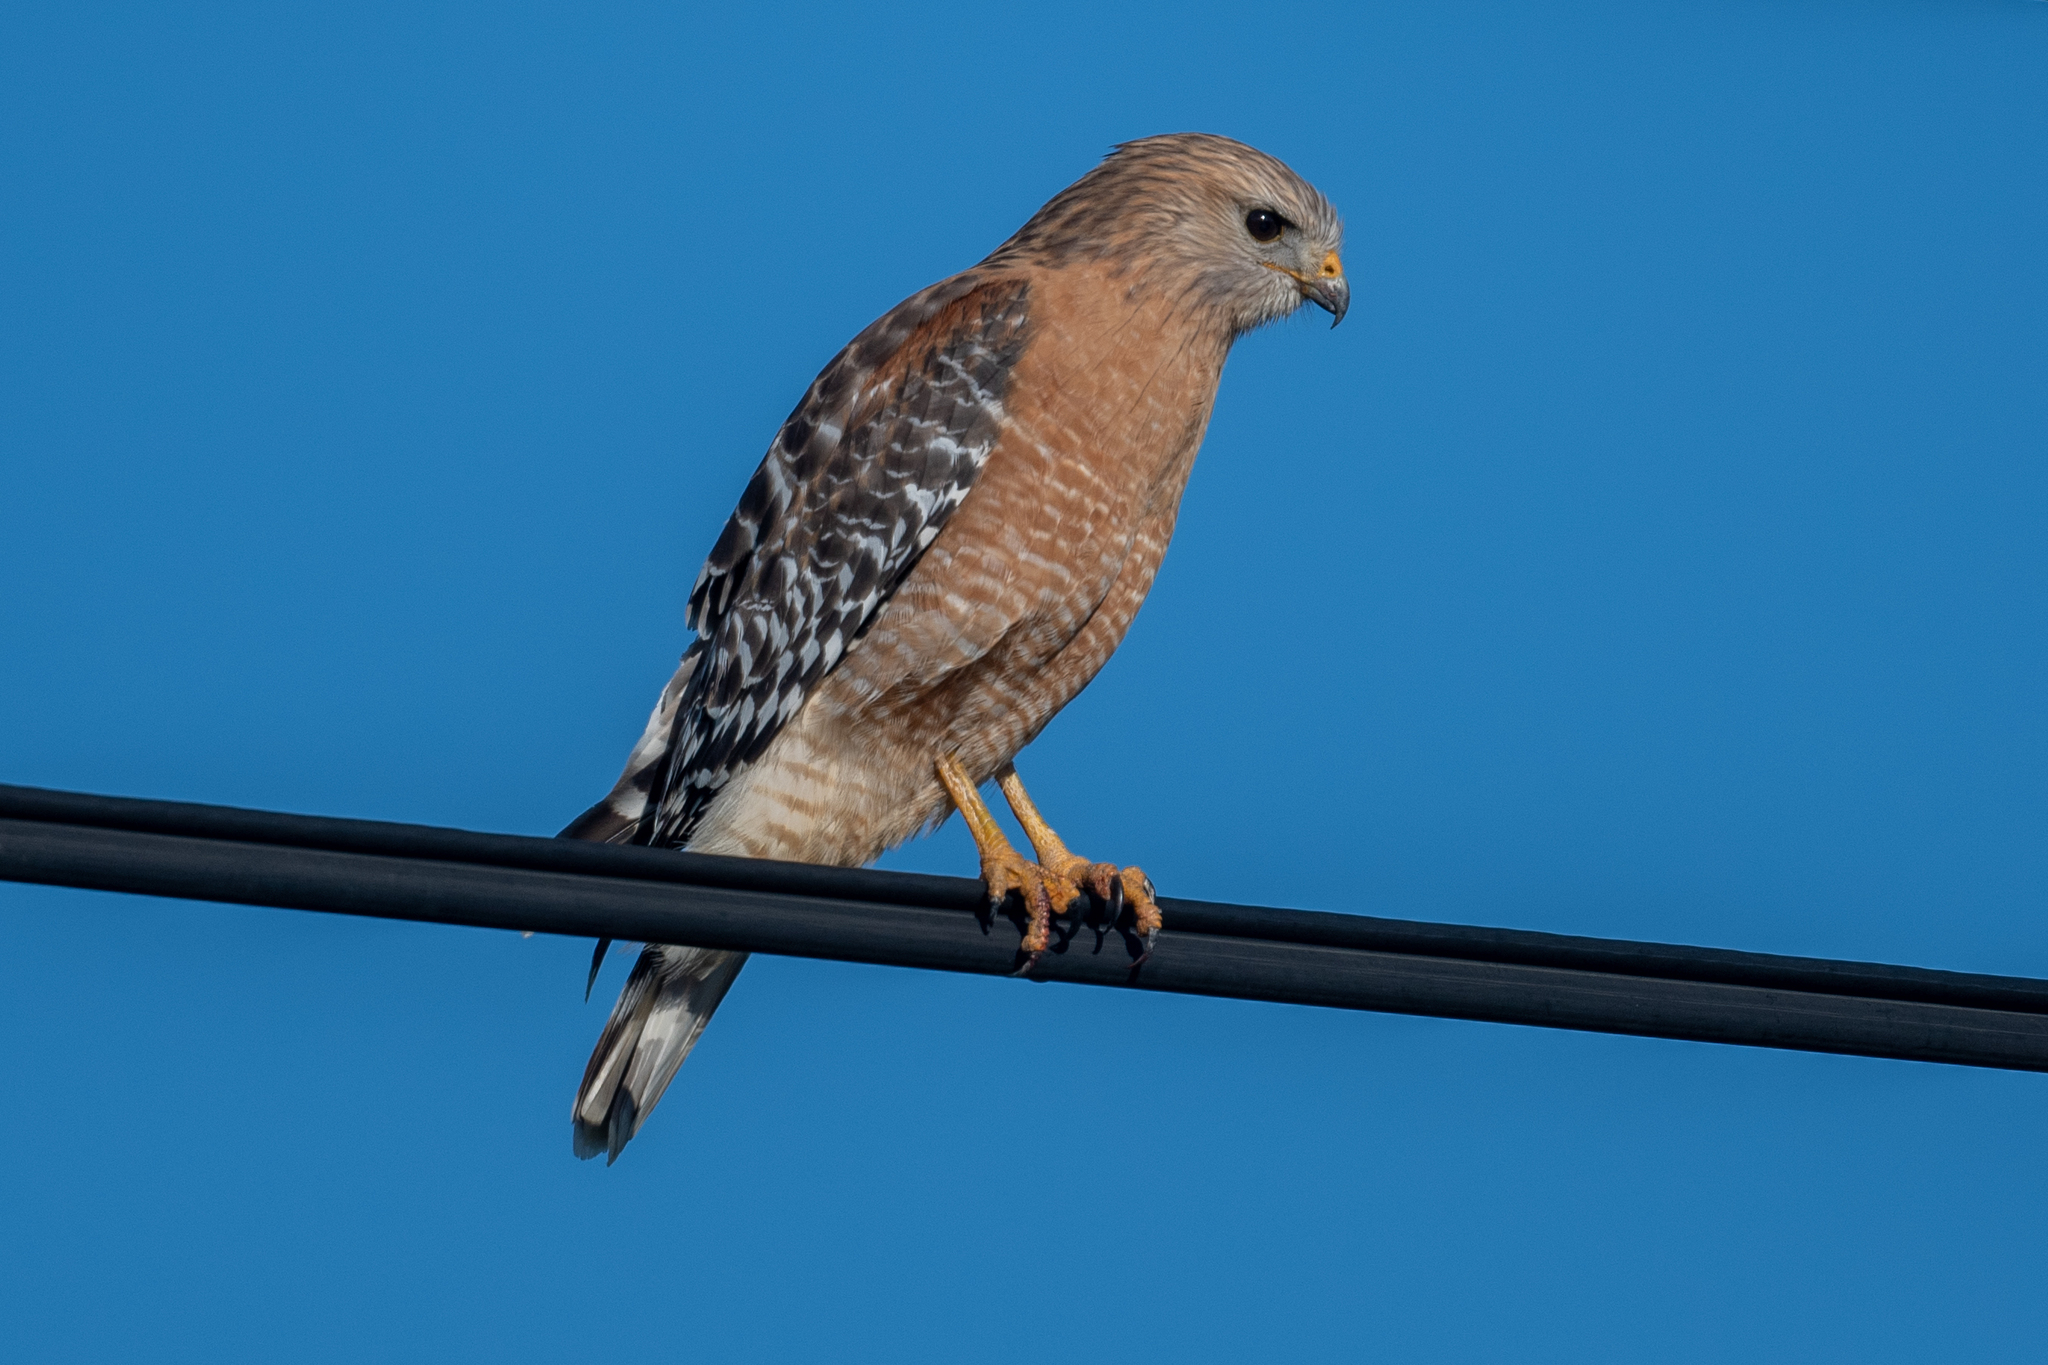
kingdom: Animalia
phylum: Chordata
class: Aves
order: Accipitriformes
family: Accipitridae
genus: Buteo
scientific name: Buteo lineatus
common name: Red-shouldered hawk
